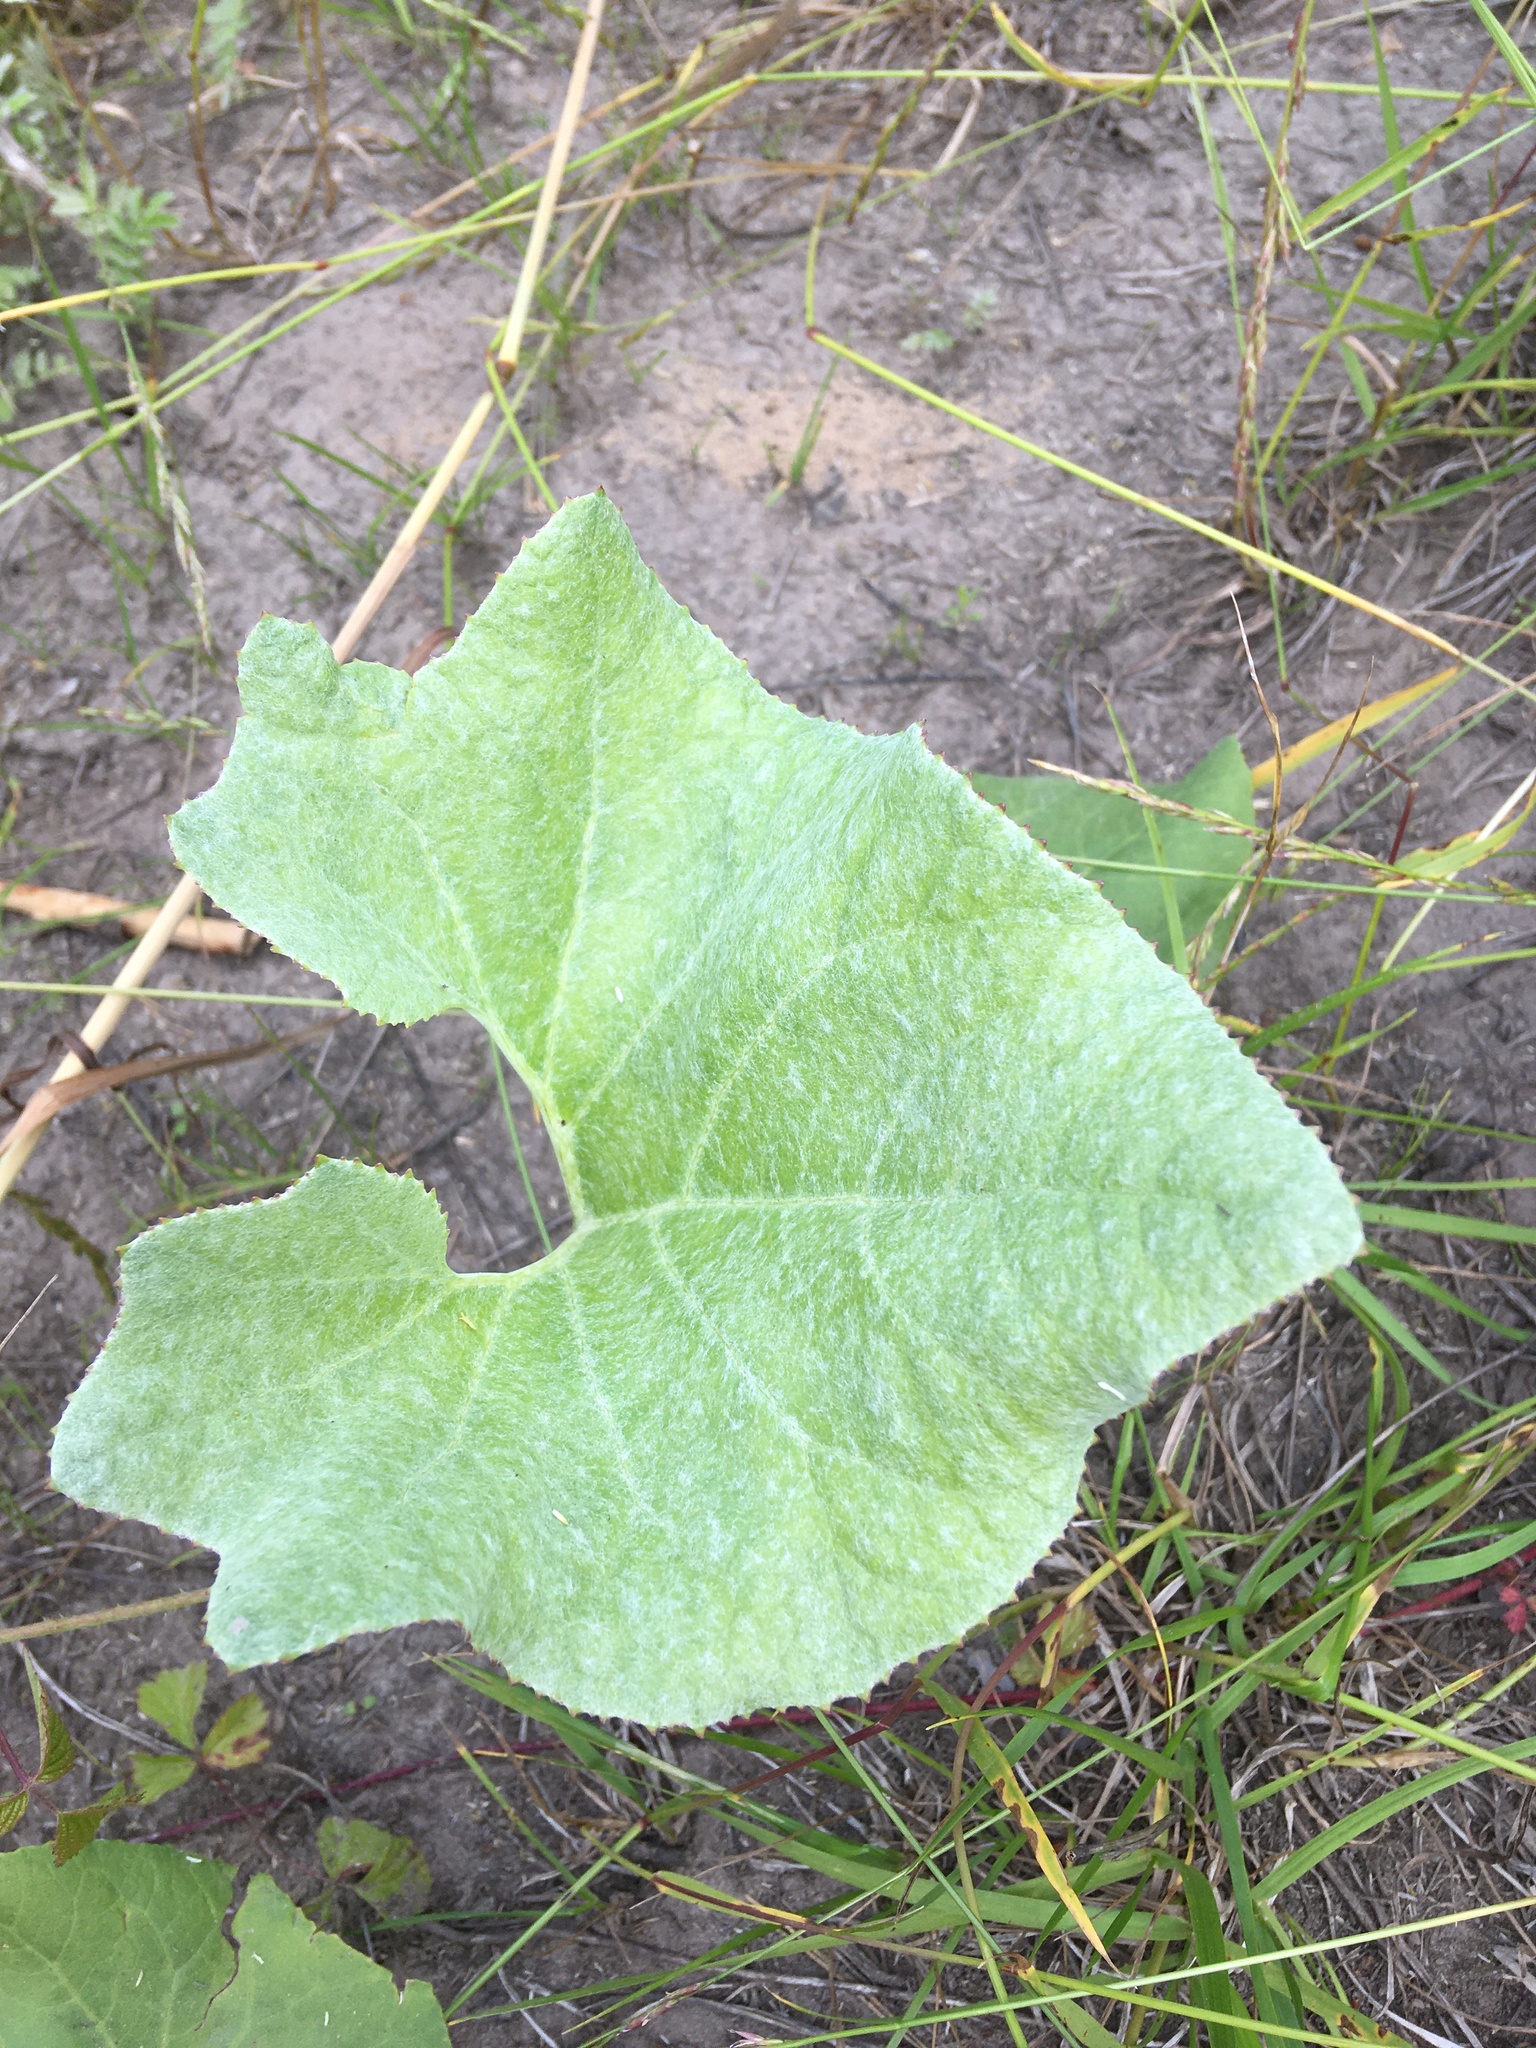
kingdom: Plantae
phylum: Tracheophyta
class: Magnoliopsida
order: Asterales
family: Asteraceae
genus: Petasites
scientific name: Petasites spurius
